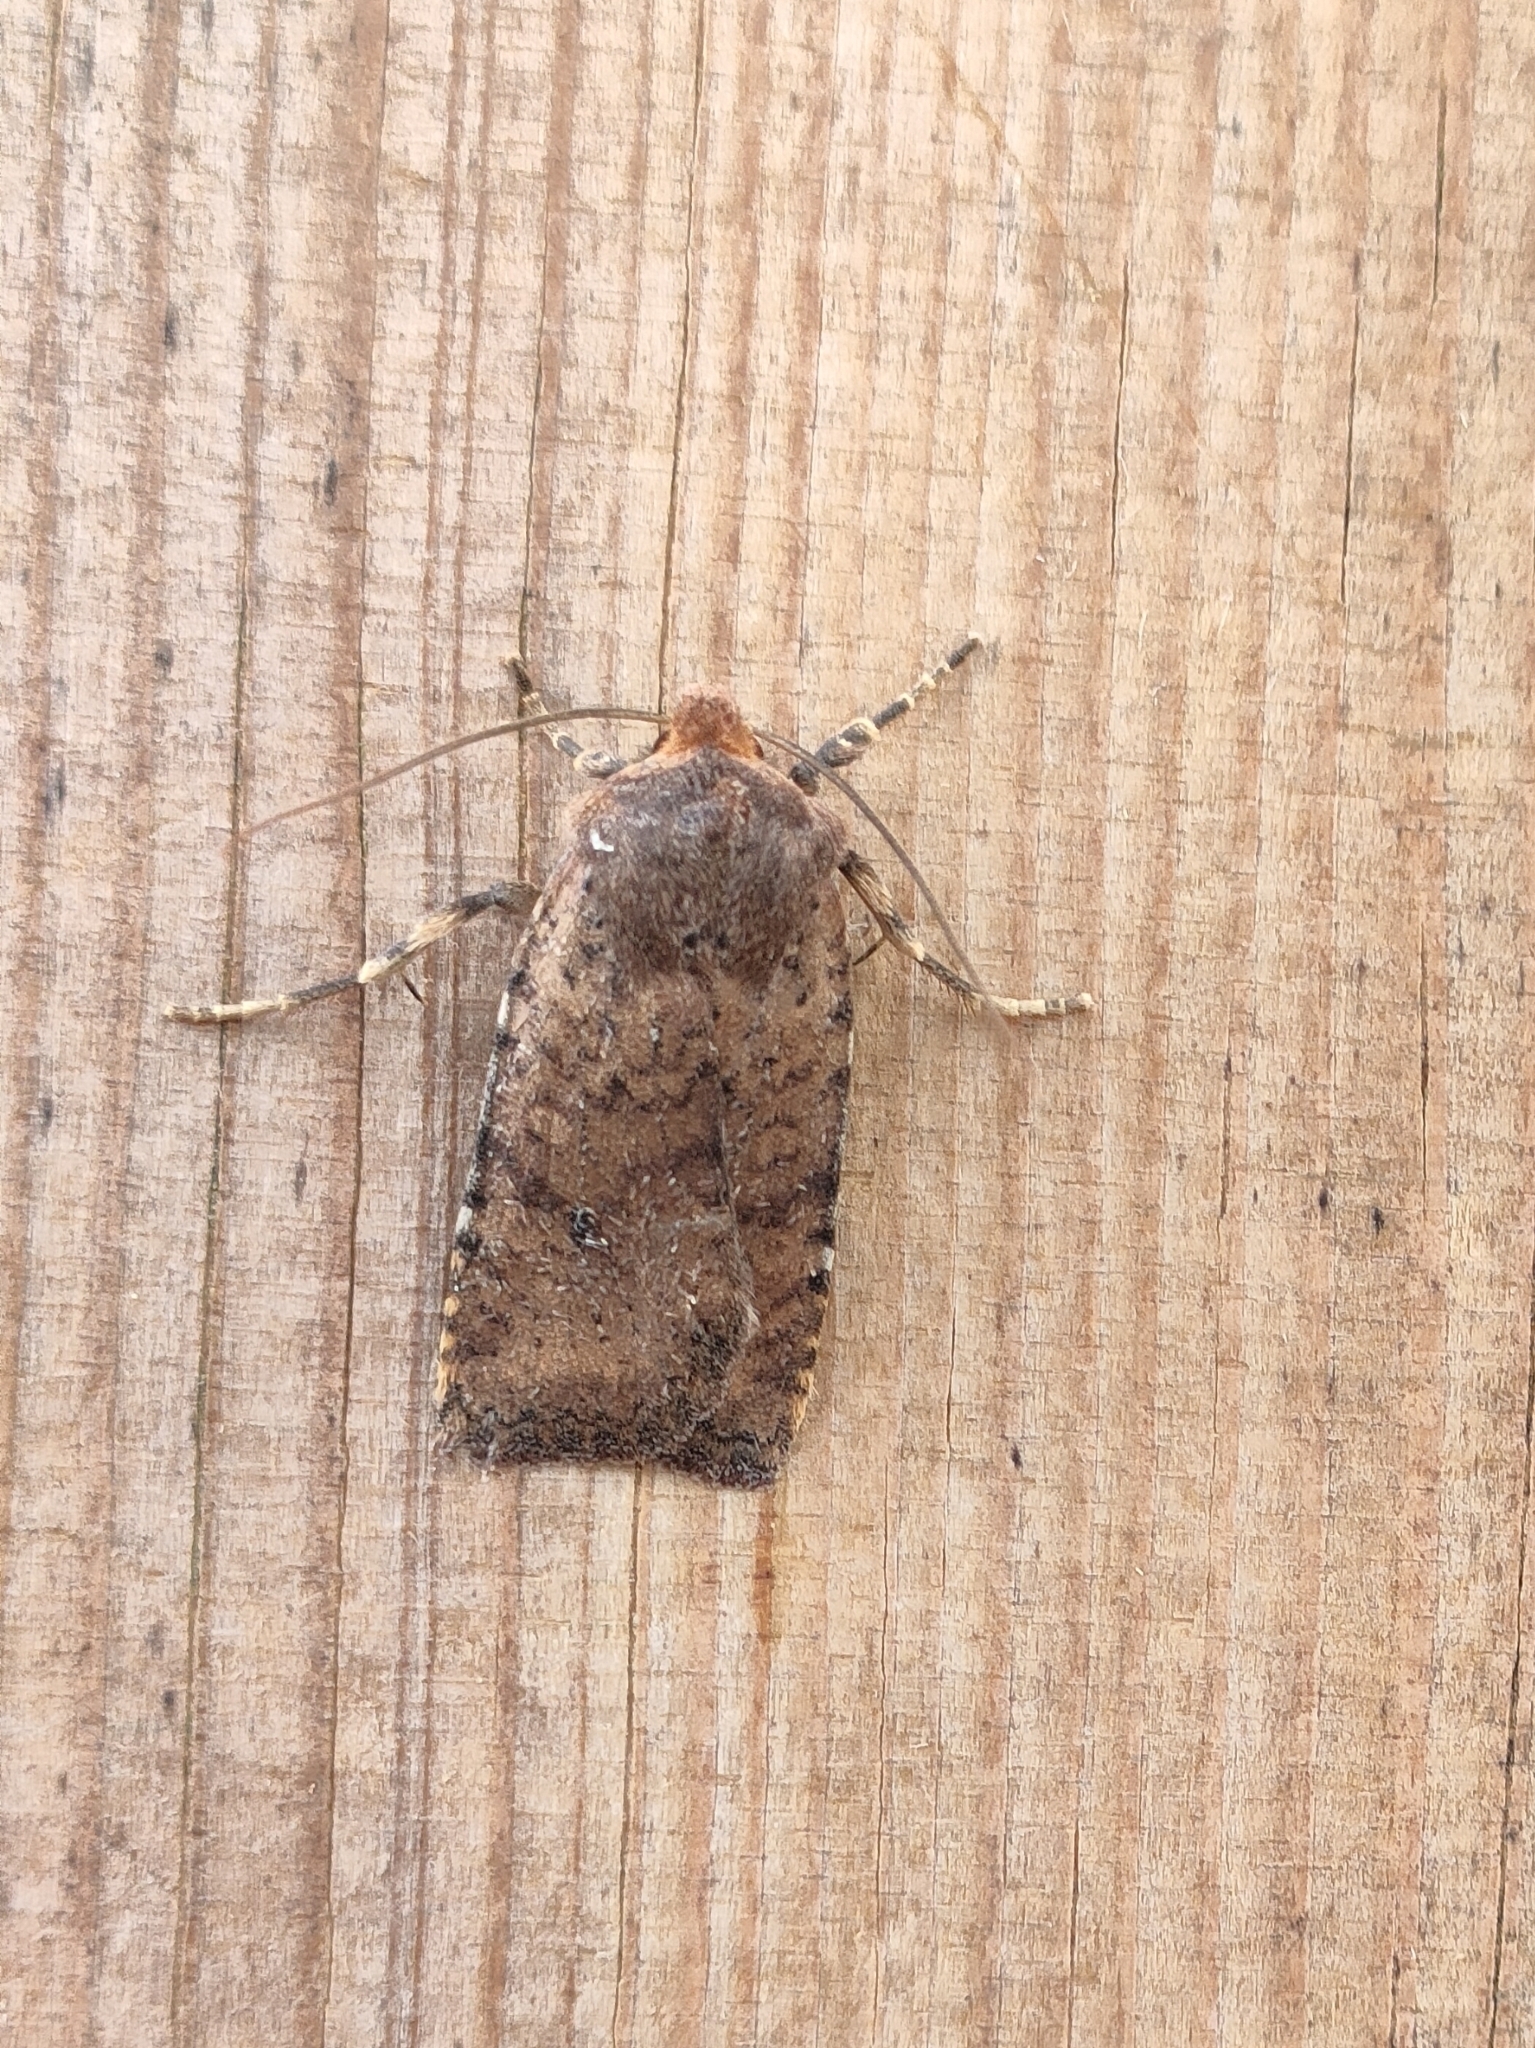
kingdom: Animalia
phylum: Arthropoda
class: Insecta
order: Lepidoptera
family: Noctuidae
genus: Conistra
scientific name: Conistra staudingeri
